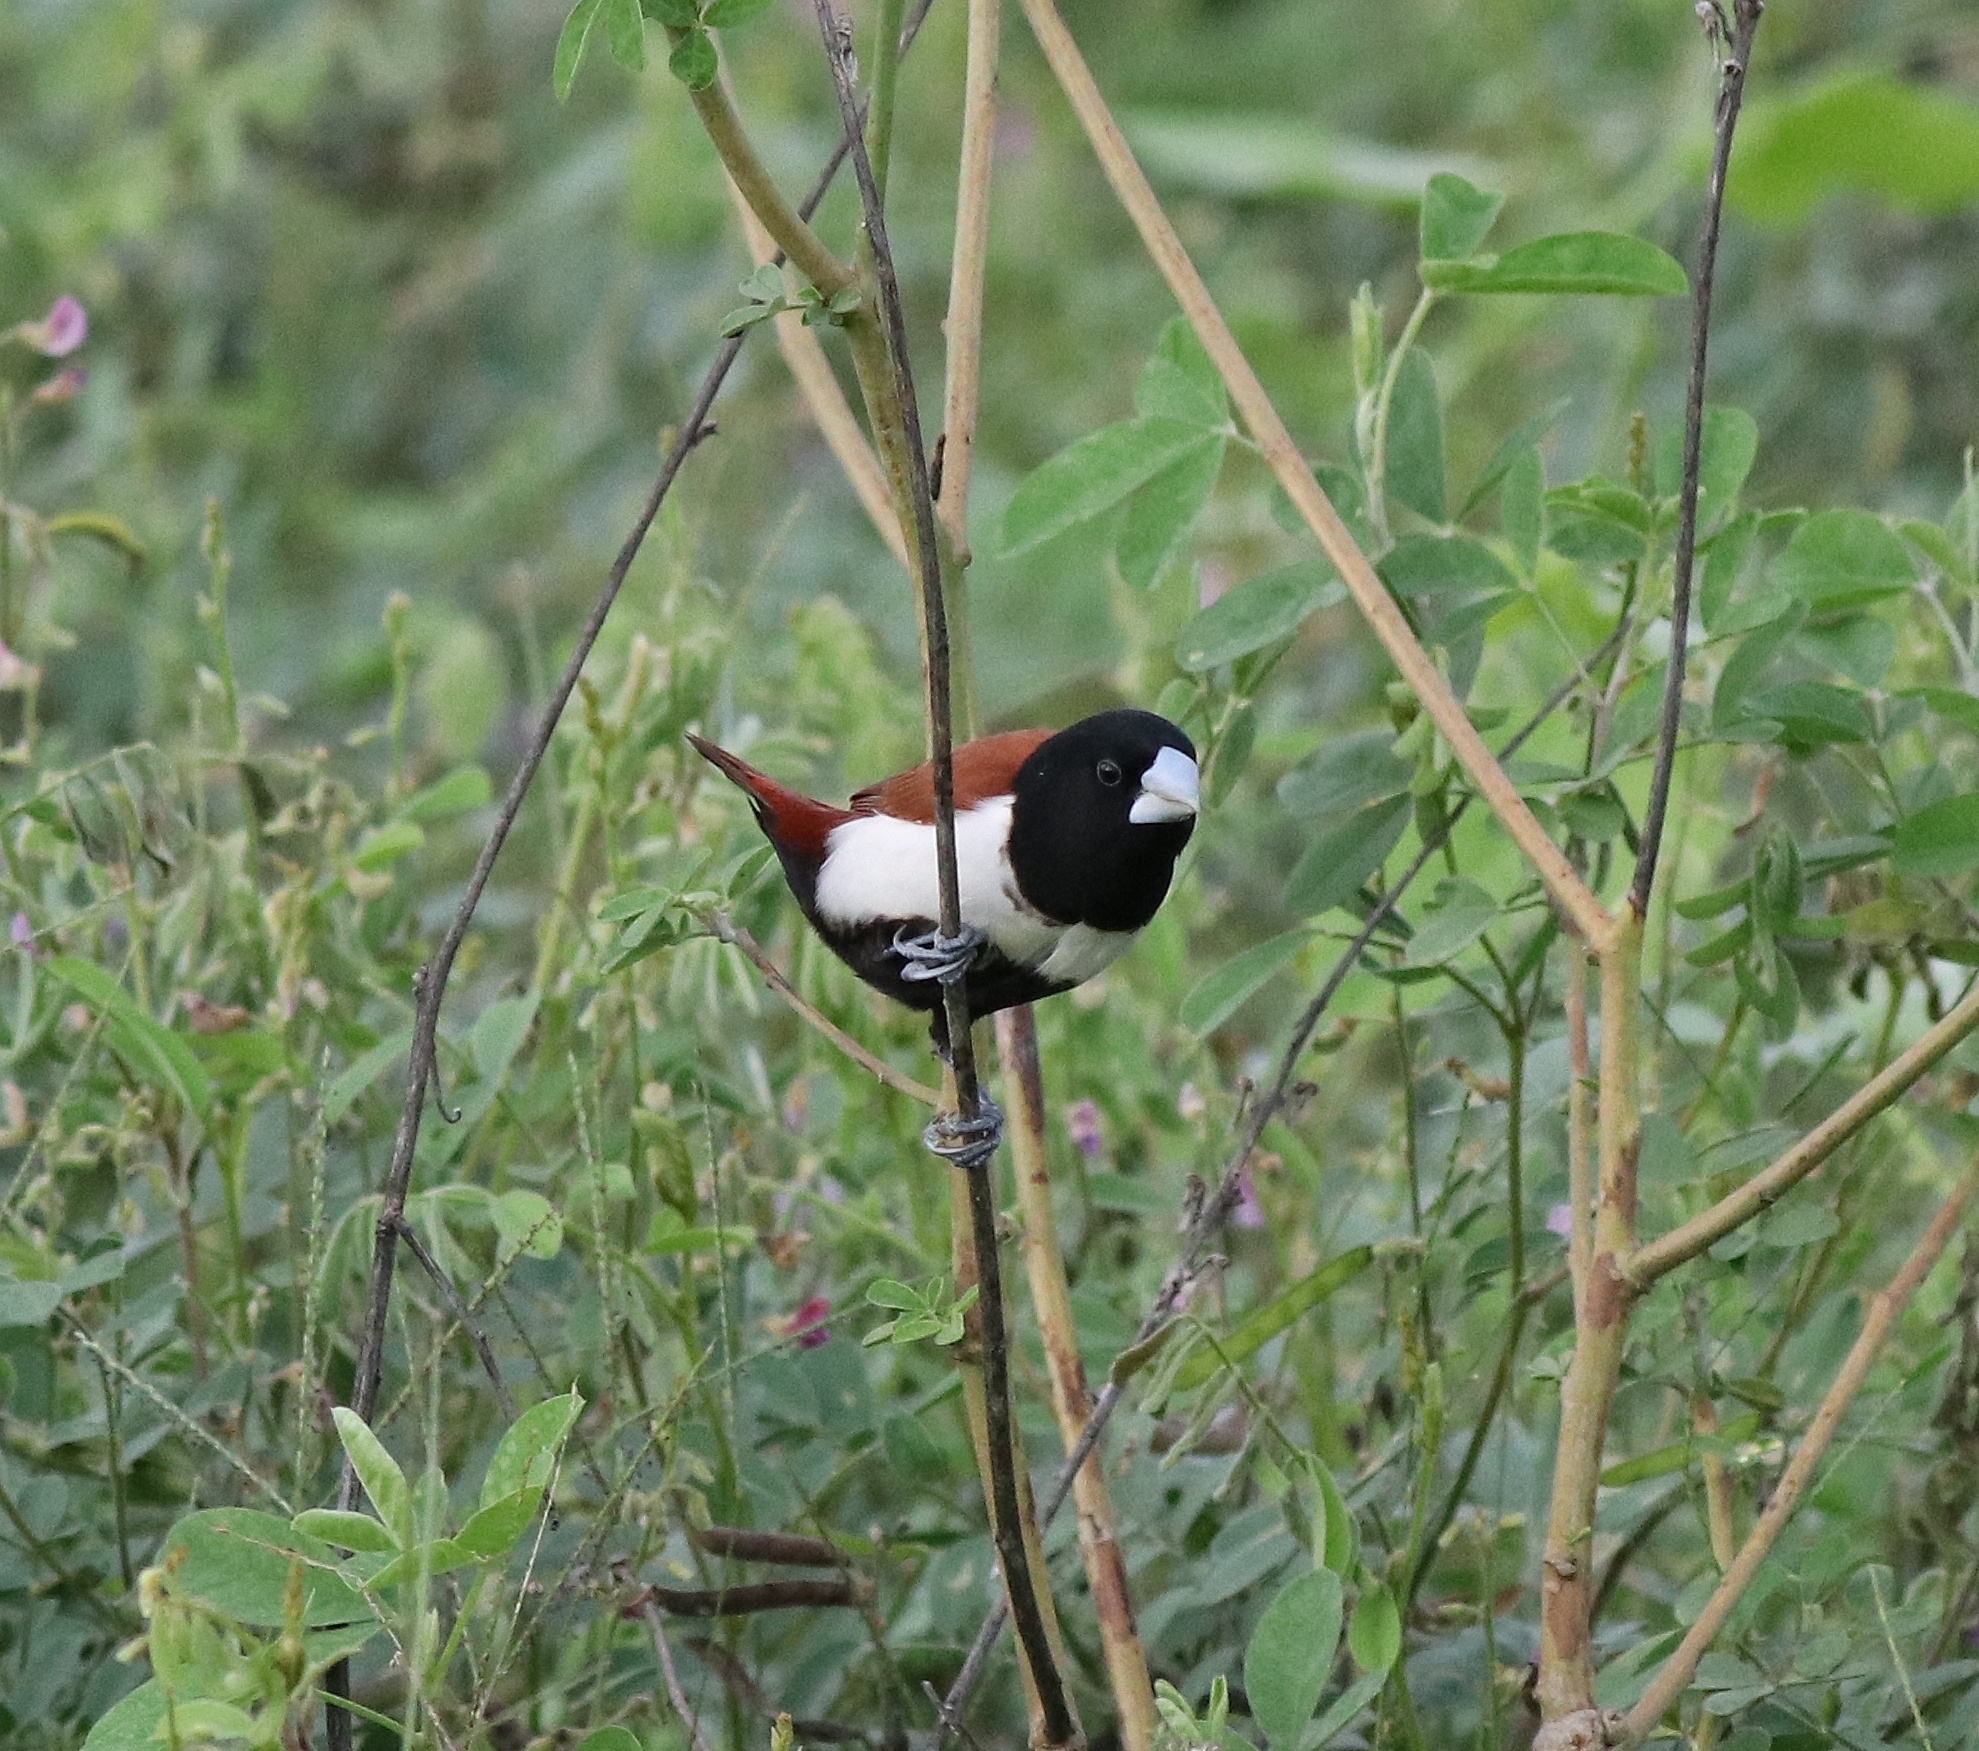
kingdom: Animalia
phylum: Chordata
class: Aves
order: Passeriformes
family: Estrildidae
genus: Lonchura
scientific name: Lonchura malacca
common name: Tricolored munia
